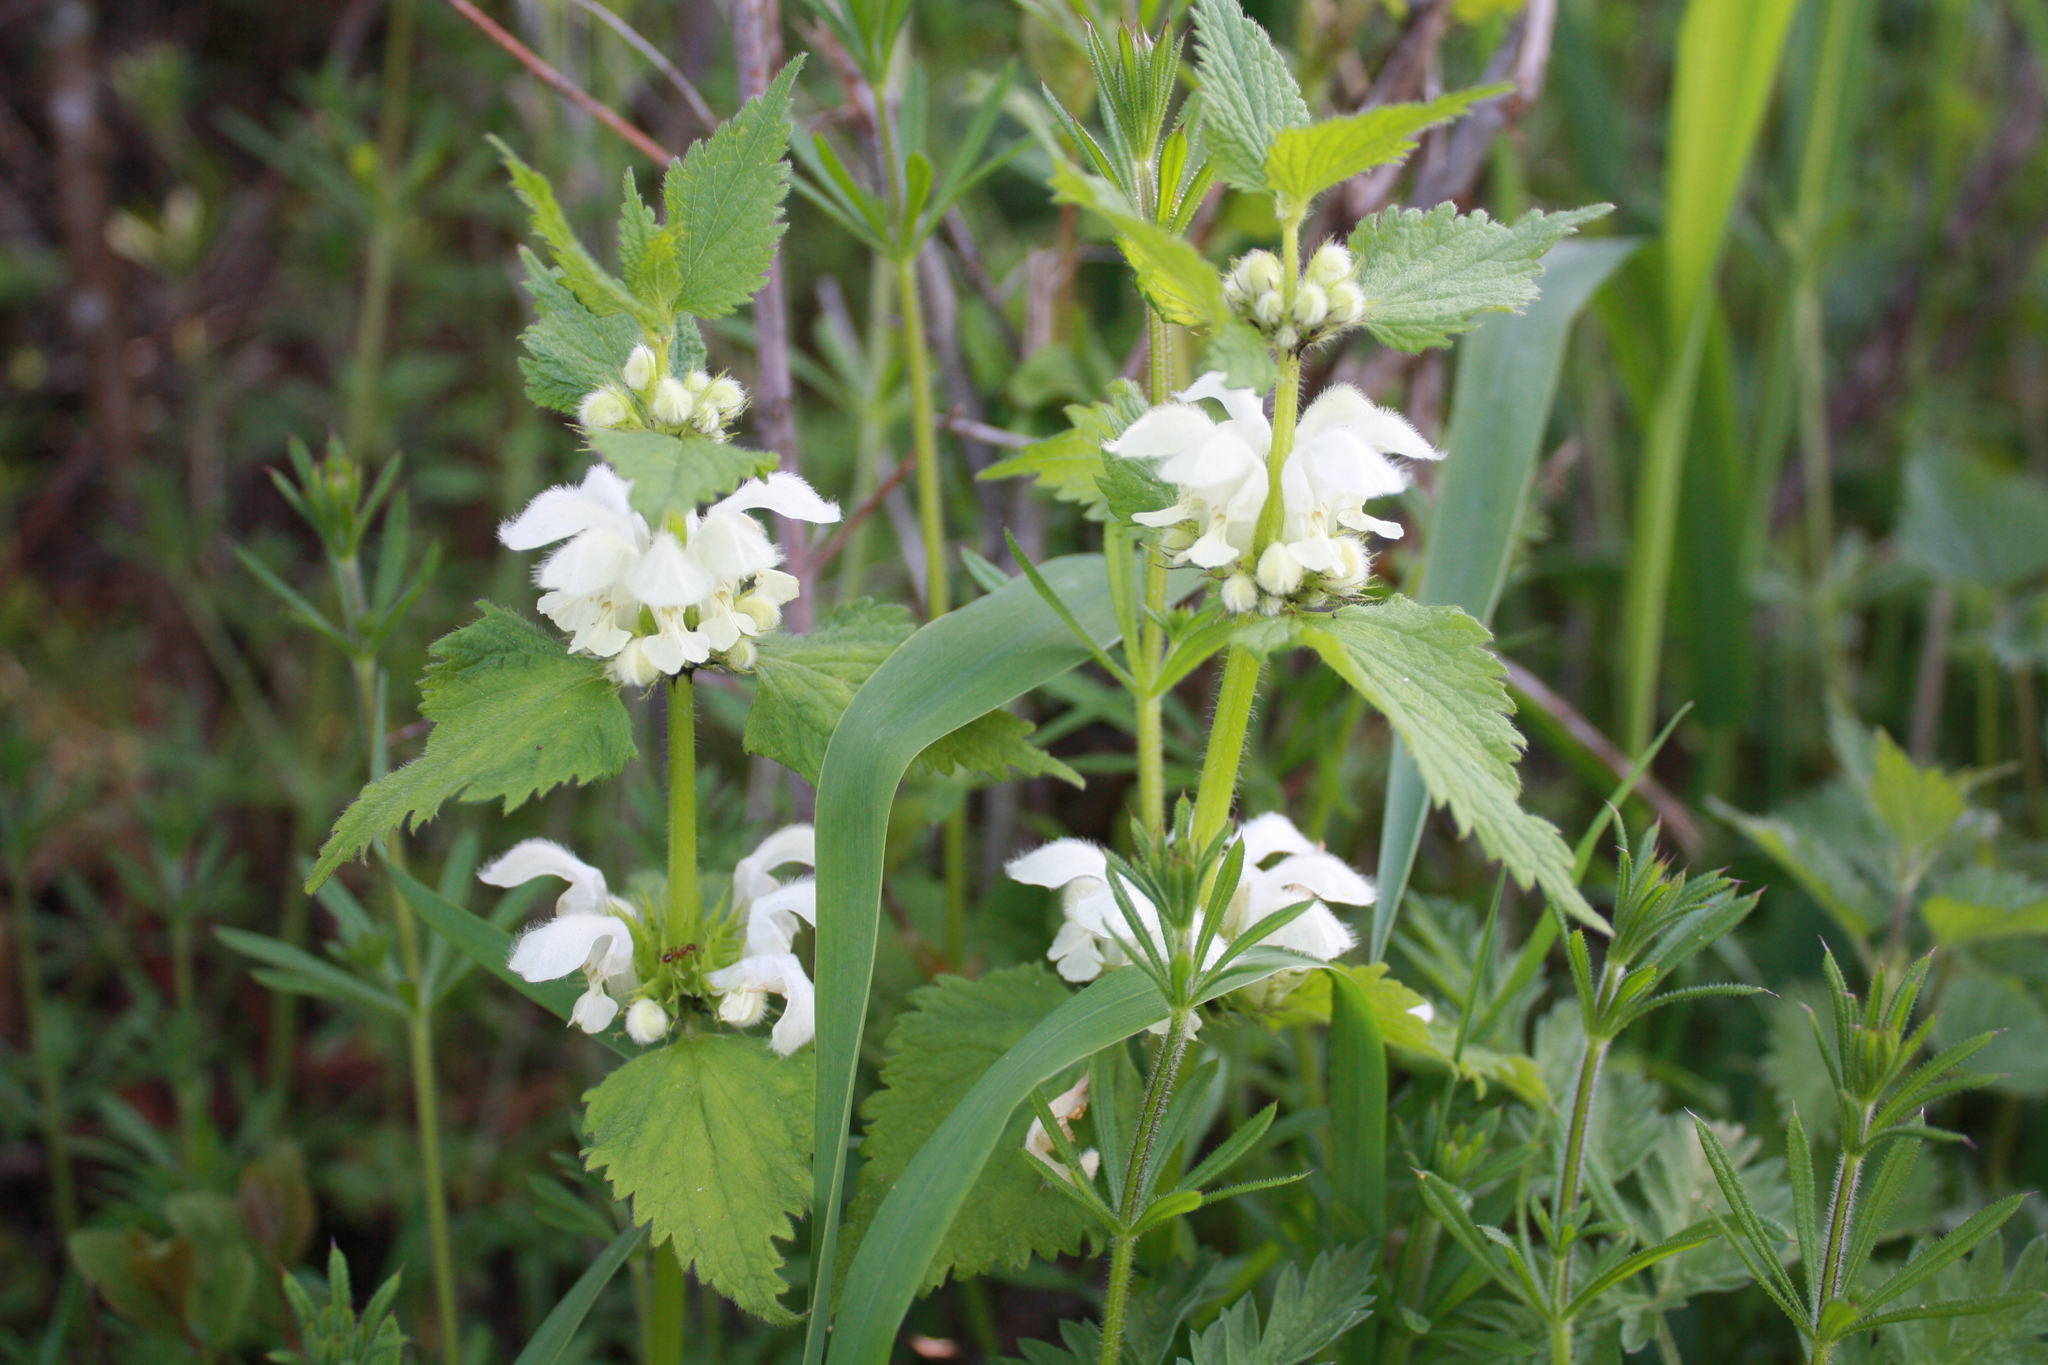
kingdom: Plantae
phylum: Tracheophyta
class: Magnoliopsida
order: Lamiales
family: Lamiaceae
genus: Lamium
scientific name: Lamium album
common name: White dead-nettle
